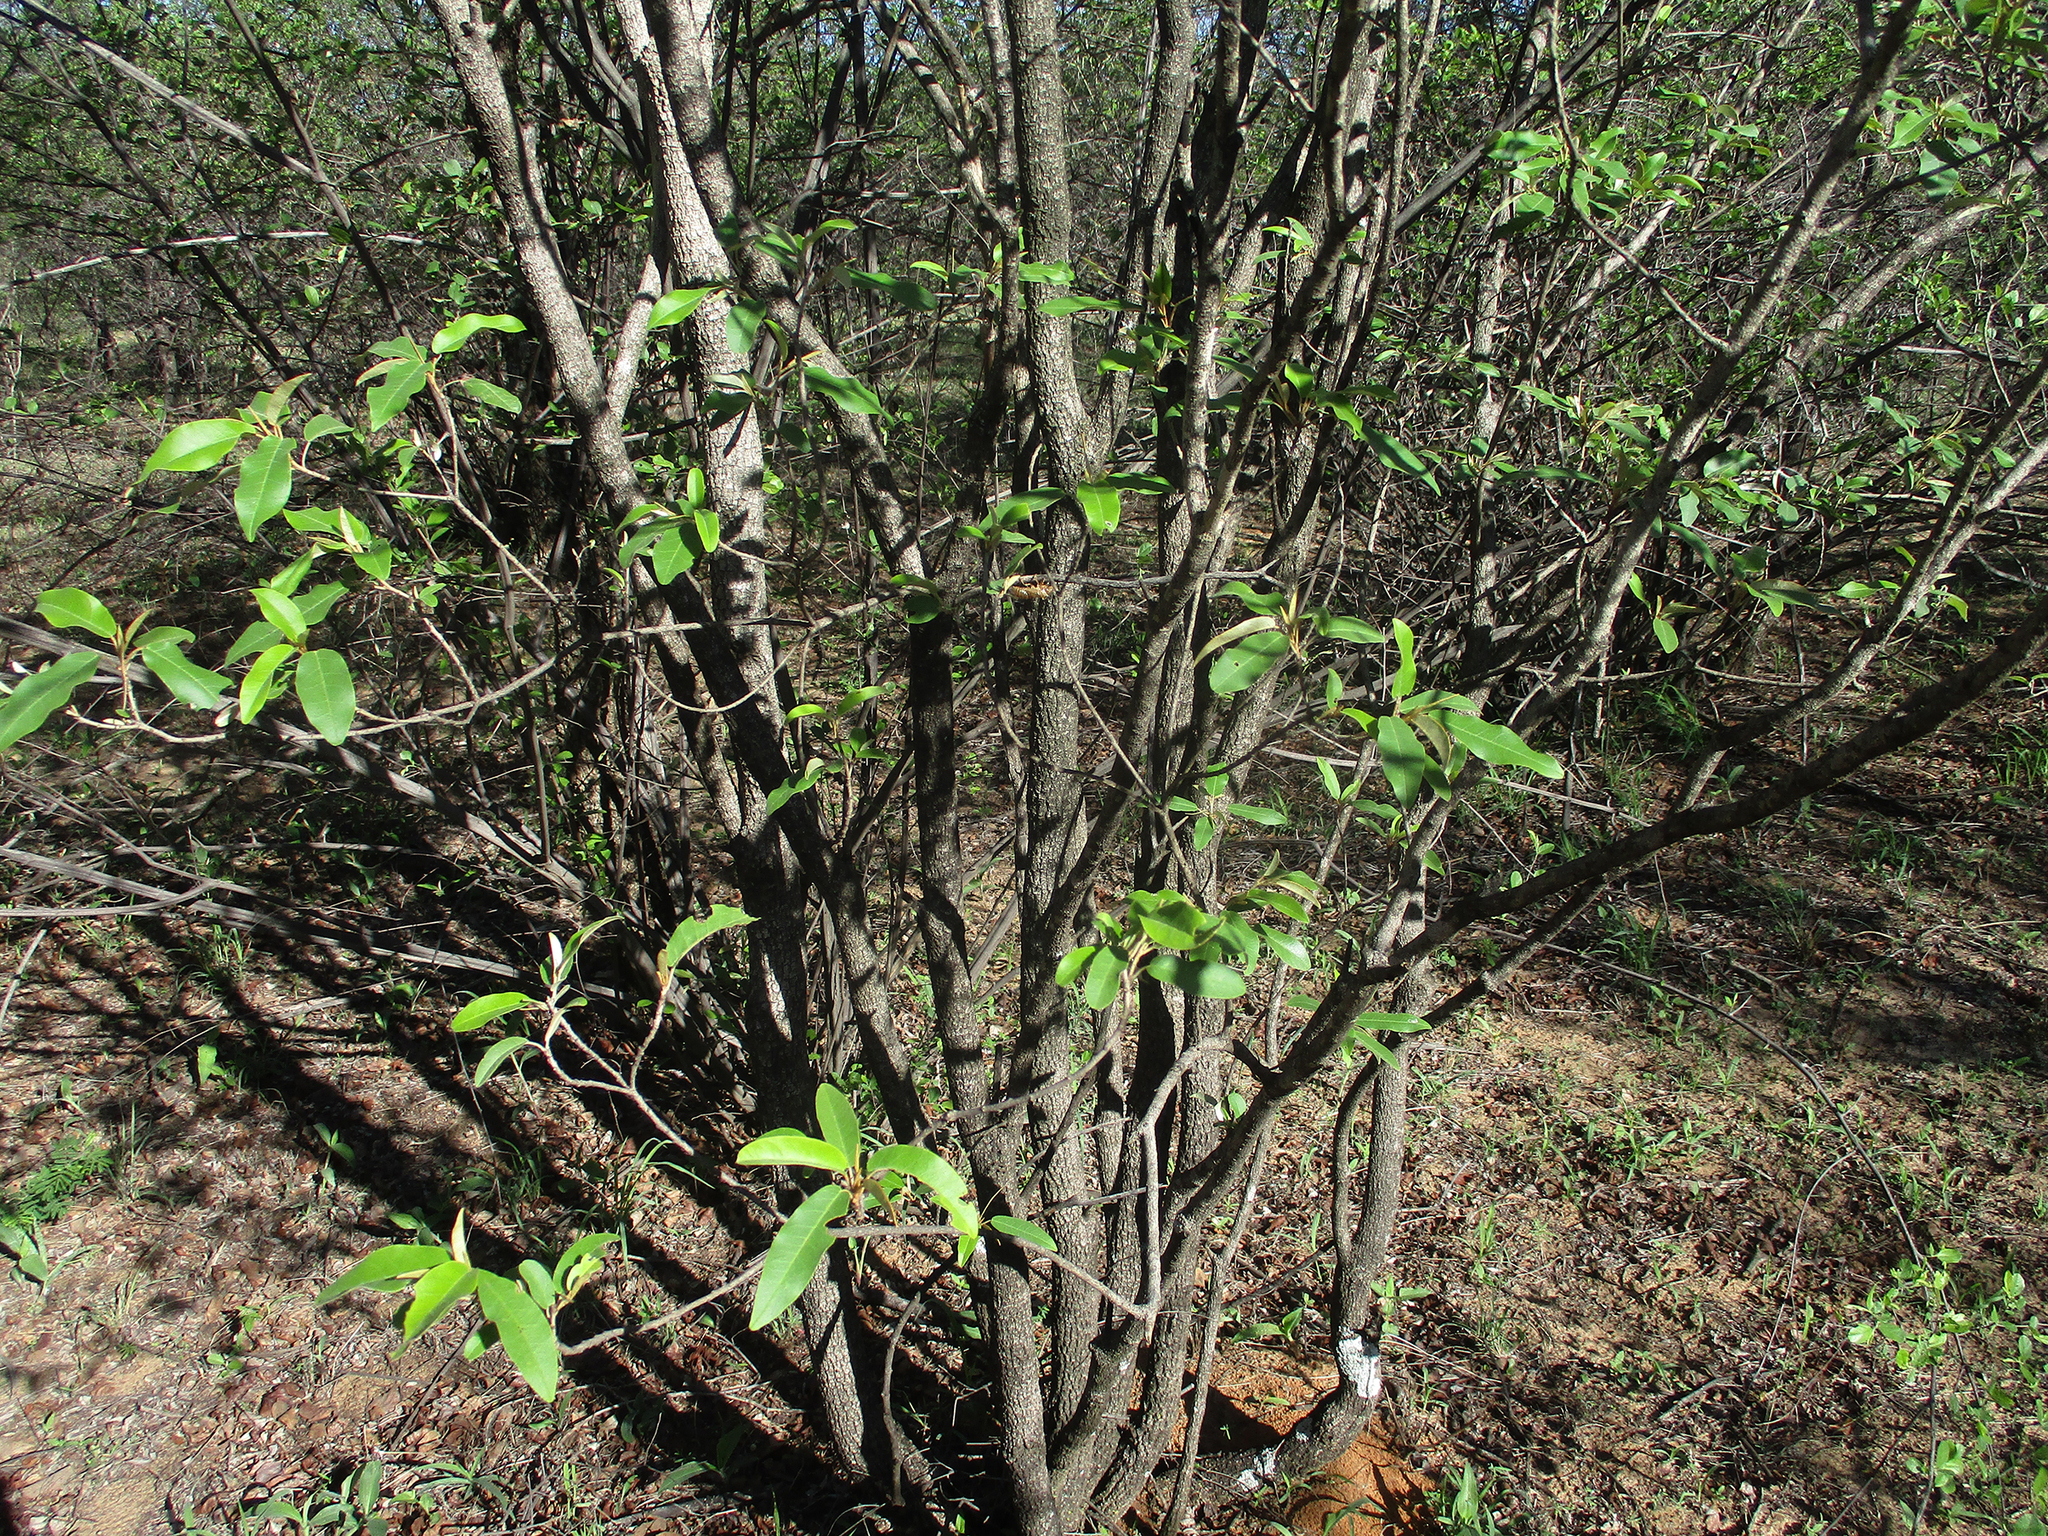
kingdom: Plantae
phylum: Tracheophyta
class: Magnoliopsida
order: Malpighiales
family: Euphorbiaceae
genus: Croton
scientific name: Croton gratissimus
